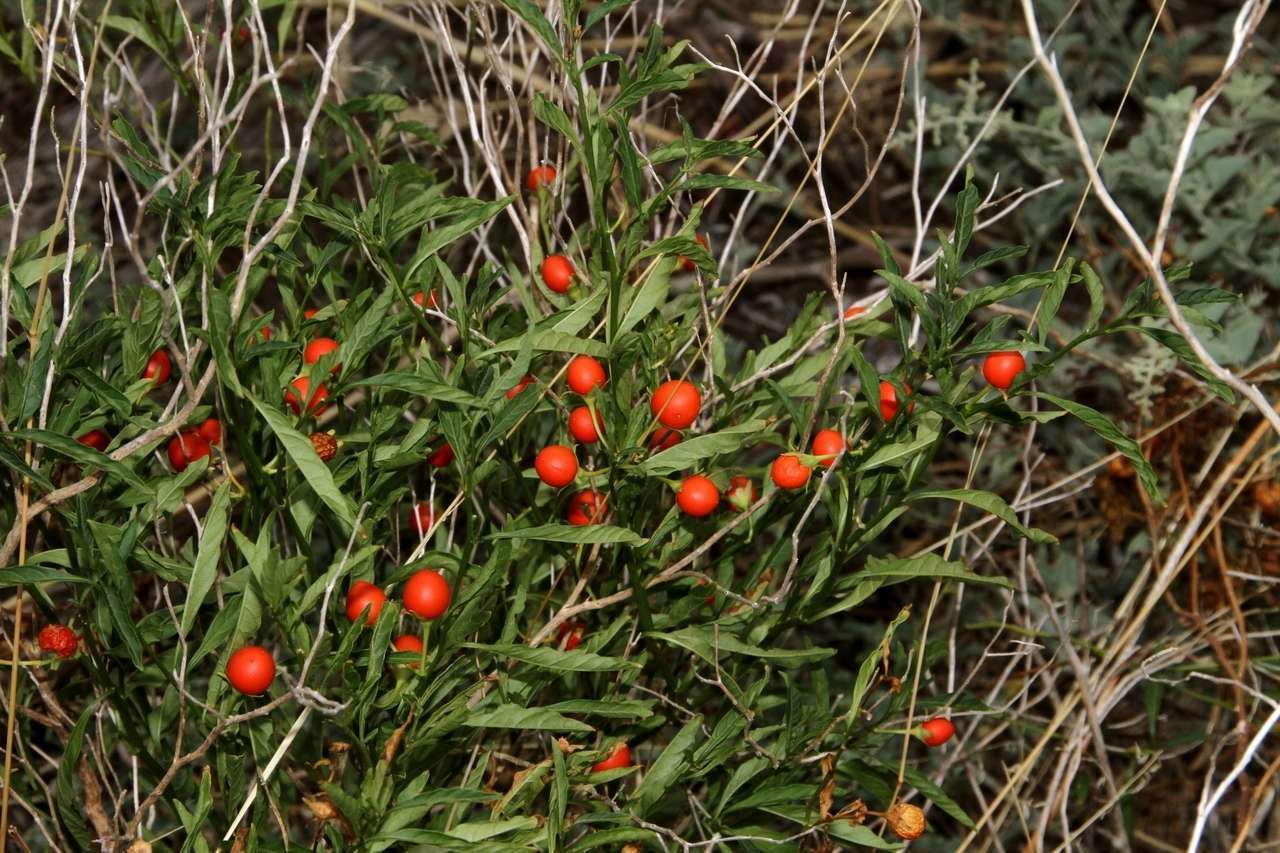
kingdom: Plantae
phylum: Tracheophyta
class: Magnoliopsida
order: Solanales
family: Solanaceae
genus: Solanum
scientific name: Solanum pseudocapsicum
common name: Jerusalem cherry
